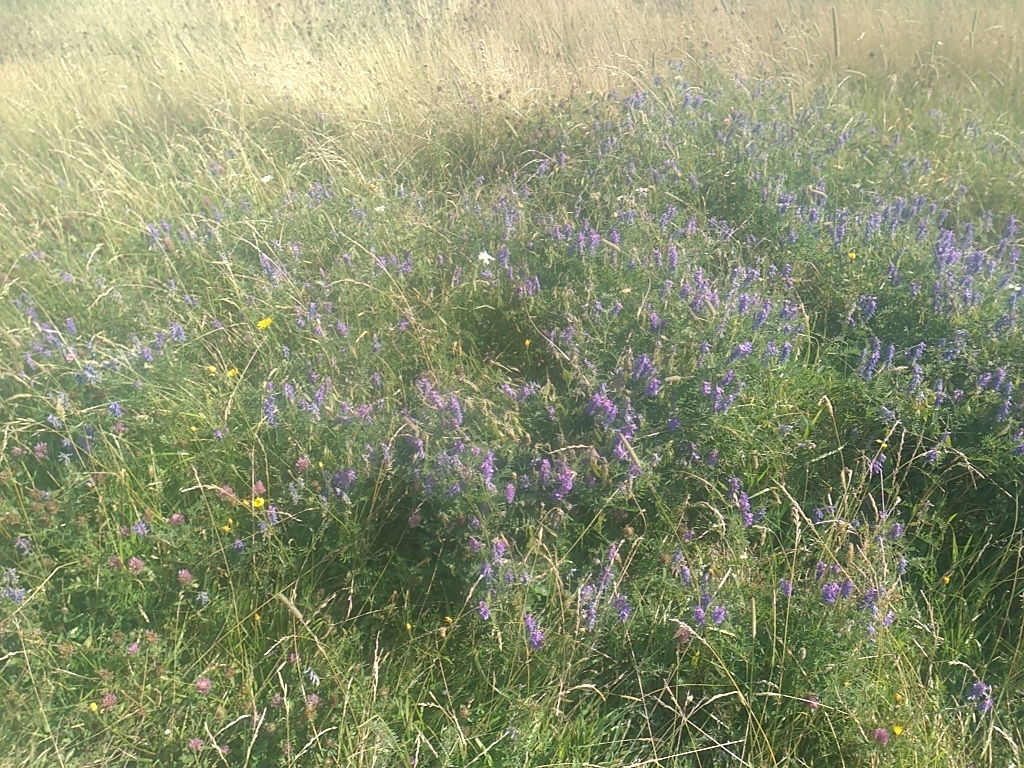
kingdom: Plantae
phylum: Tracheophyta
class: Magnoliopsida
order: Fabales
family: Fabaceae
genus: Vicia
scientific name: Vicia cracca
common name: Bird vetch
